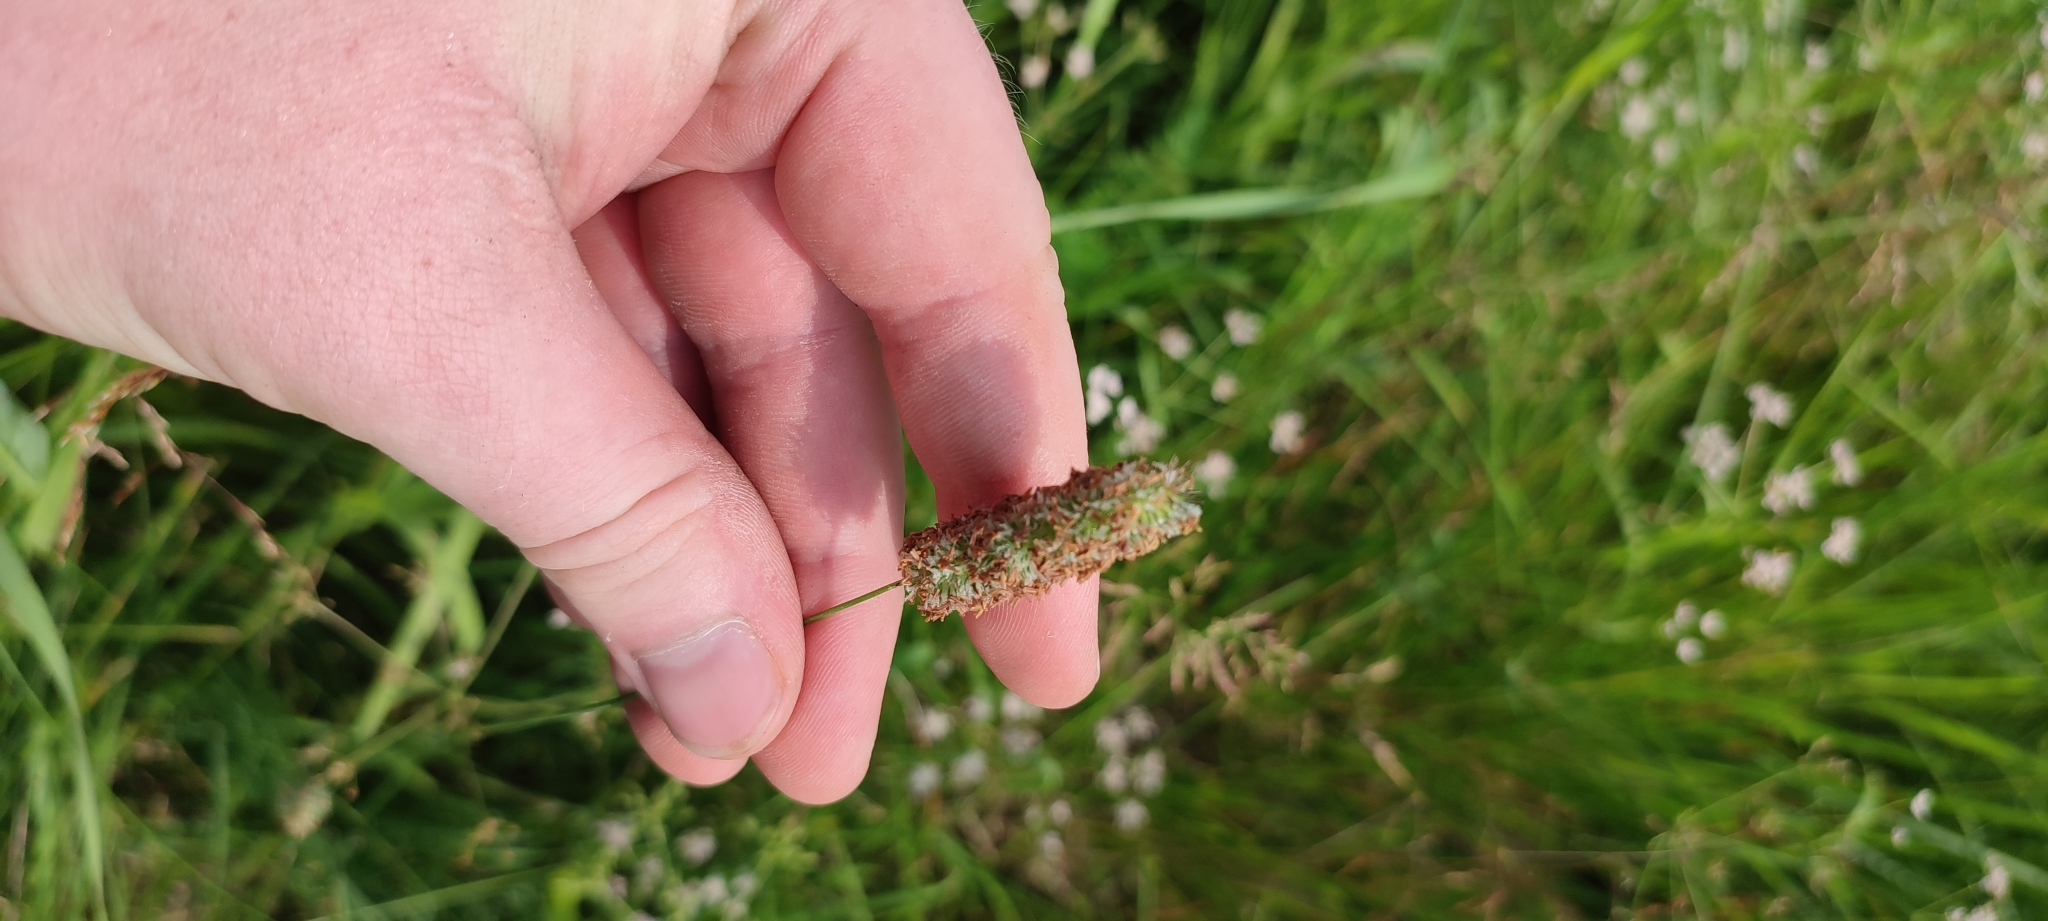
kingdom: Plantae
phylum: Tracheophyta
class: Liliopsida
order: Poales
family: Poaceae
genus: Phleum
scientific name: Phleum pratense
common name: Timothy grass
